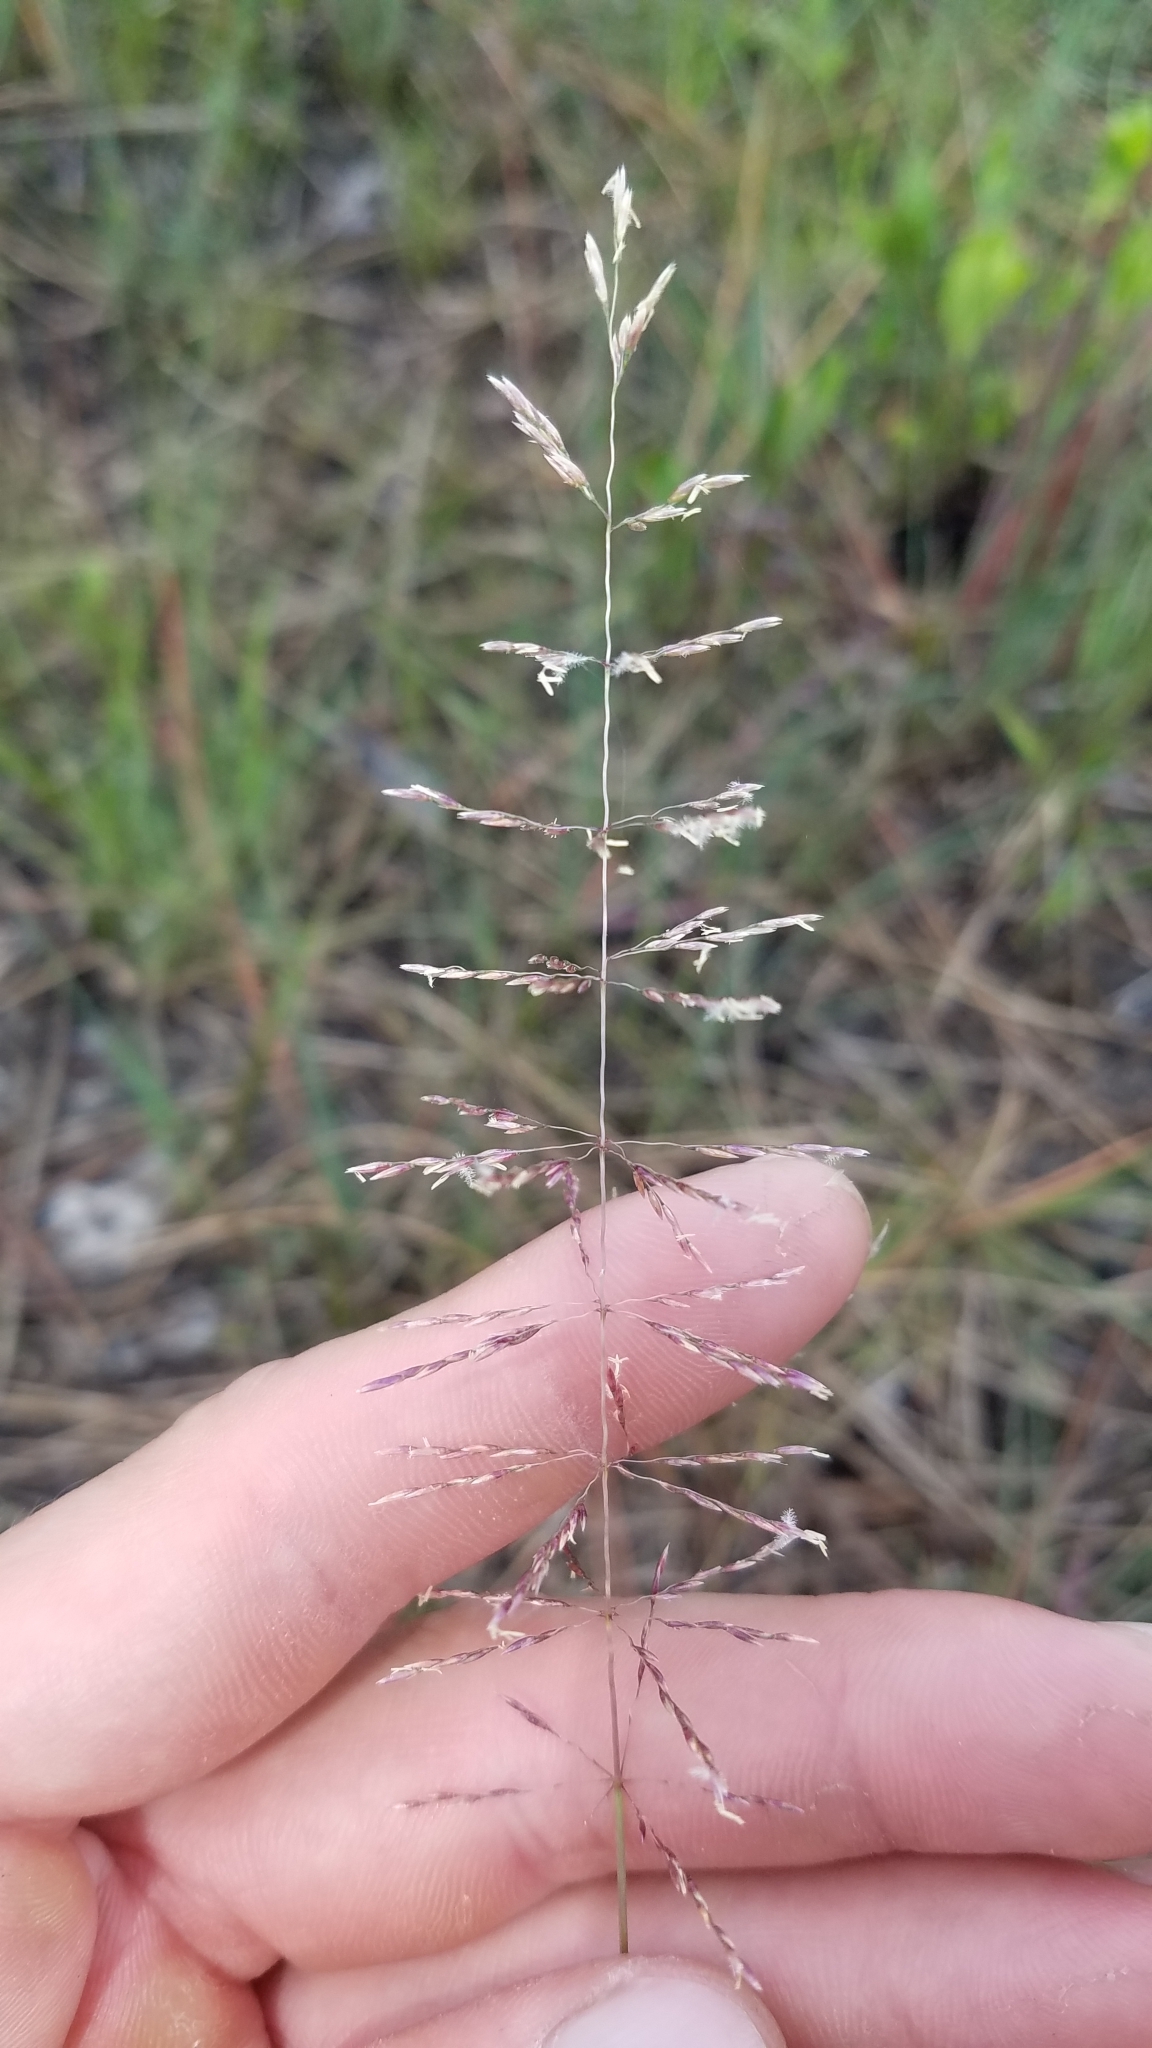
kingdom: Plantae
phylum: Tracheophyta
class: Liliopsida
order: Poales
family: Poaceae
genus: Sporobolus
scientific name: Sporobolus junceus
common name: Lizard grass
